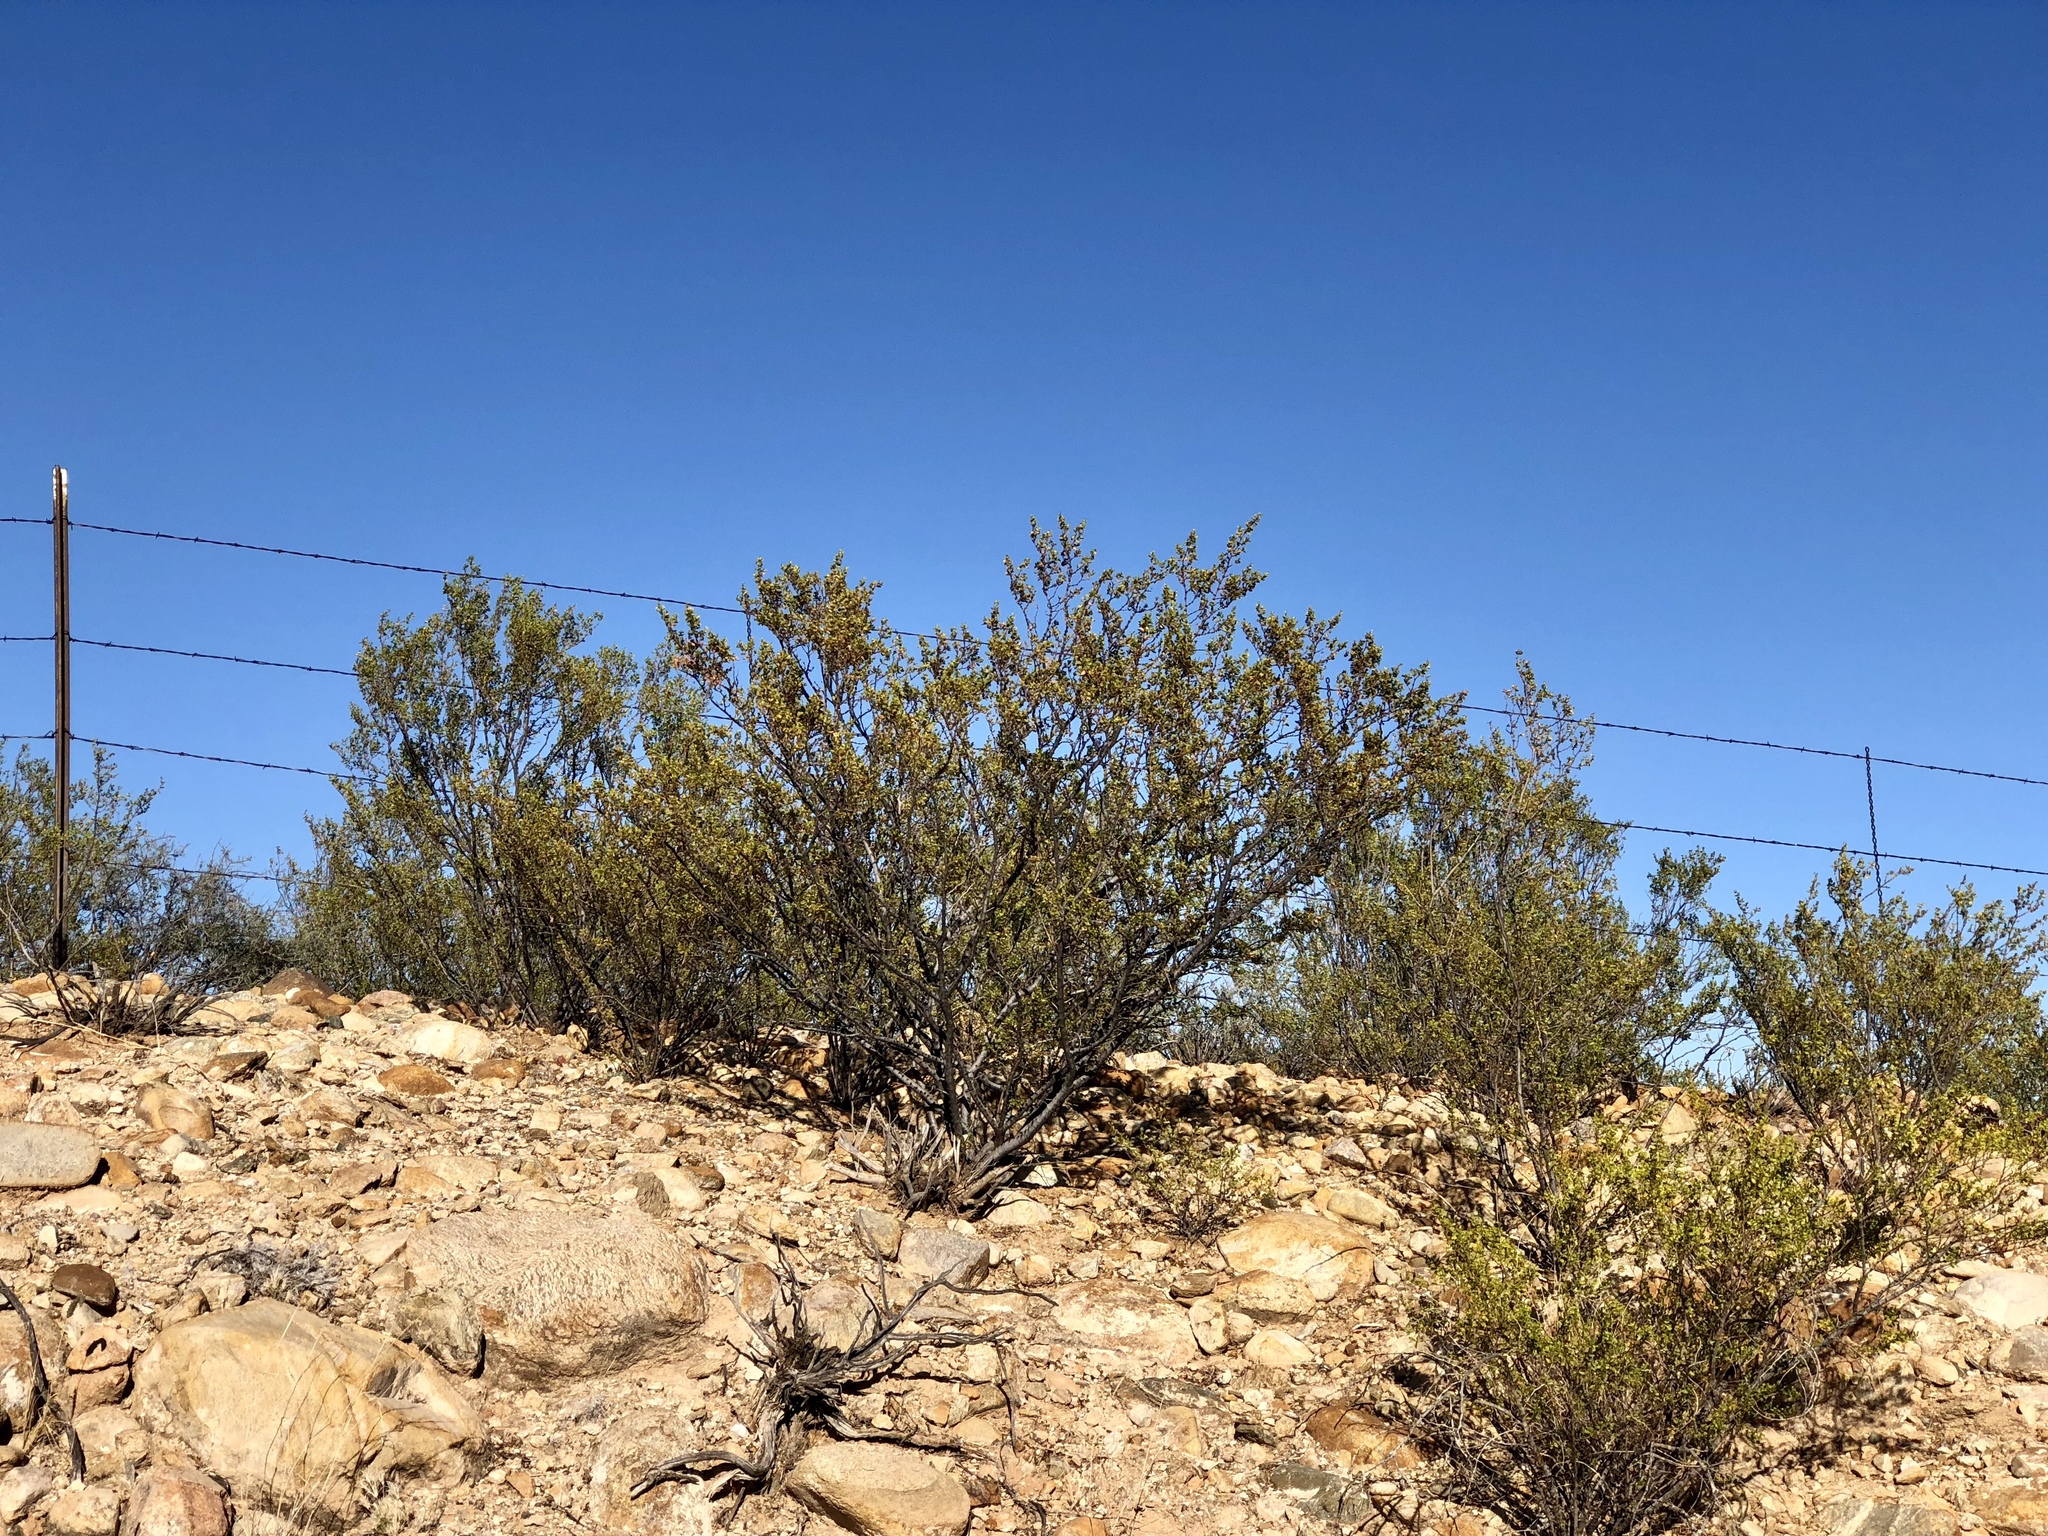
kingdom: Plantae
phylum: Tracheophyta
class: Magnoliopsida
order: Zygophyllales
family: Zygophyllaceae
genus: Larrea
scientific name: Larrea tridentata
